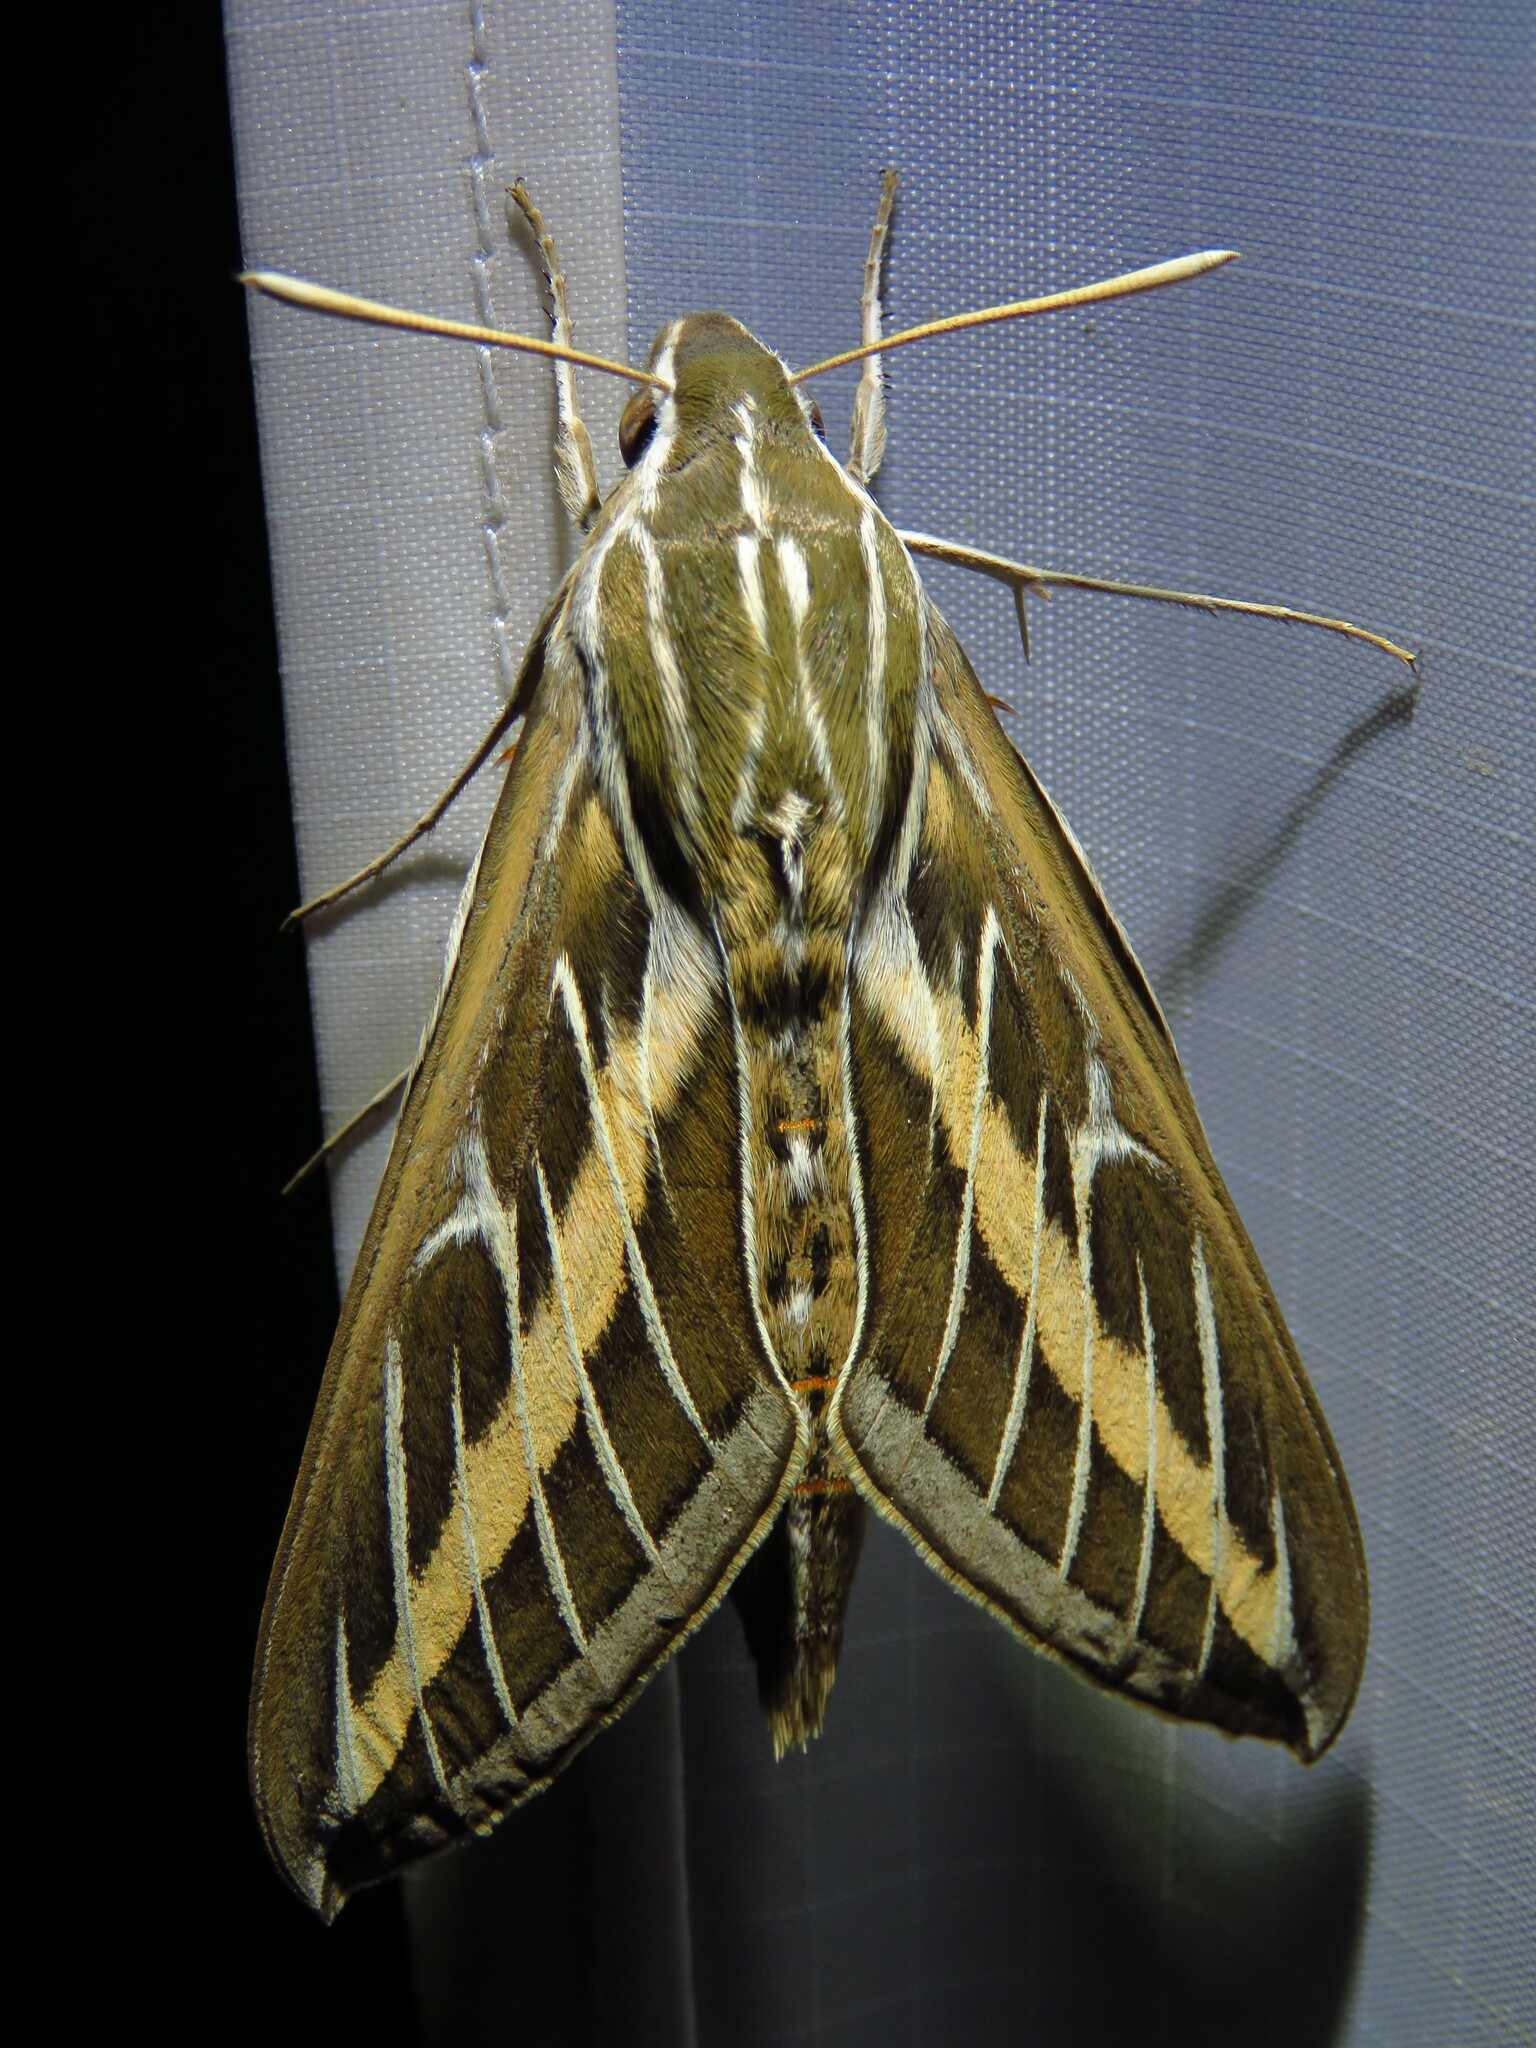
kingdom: Animalia
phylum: Arthropoda
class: Insecta
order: Lepidoptera
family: Sphingidae
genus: Hyles
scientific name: Hyles lineata
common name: White-lined sphinx
